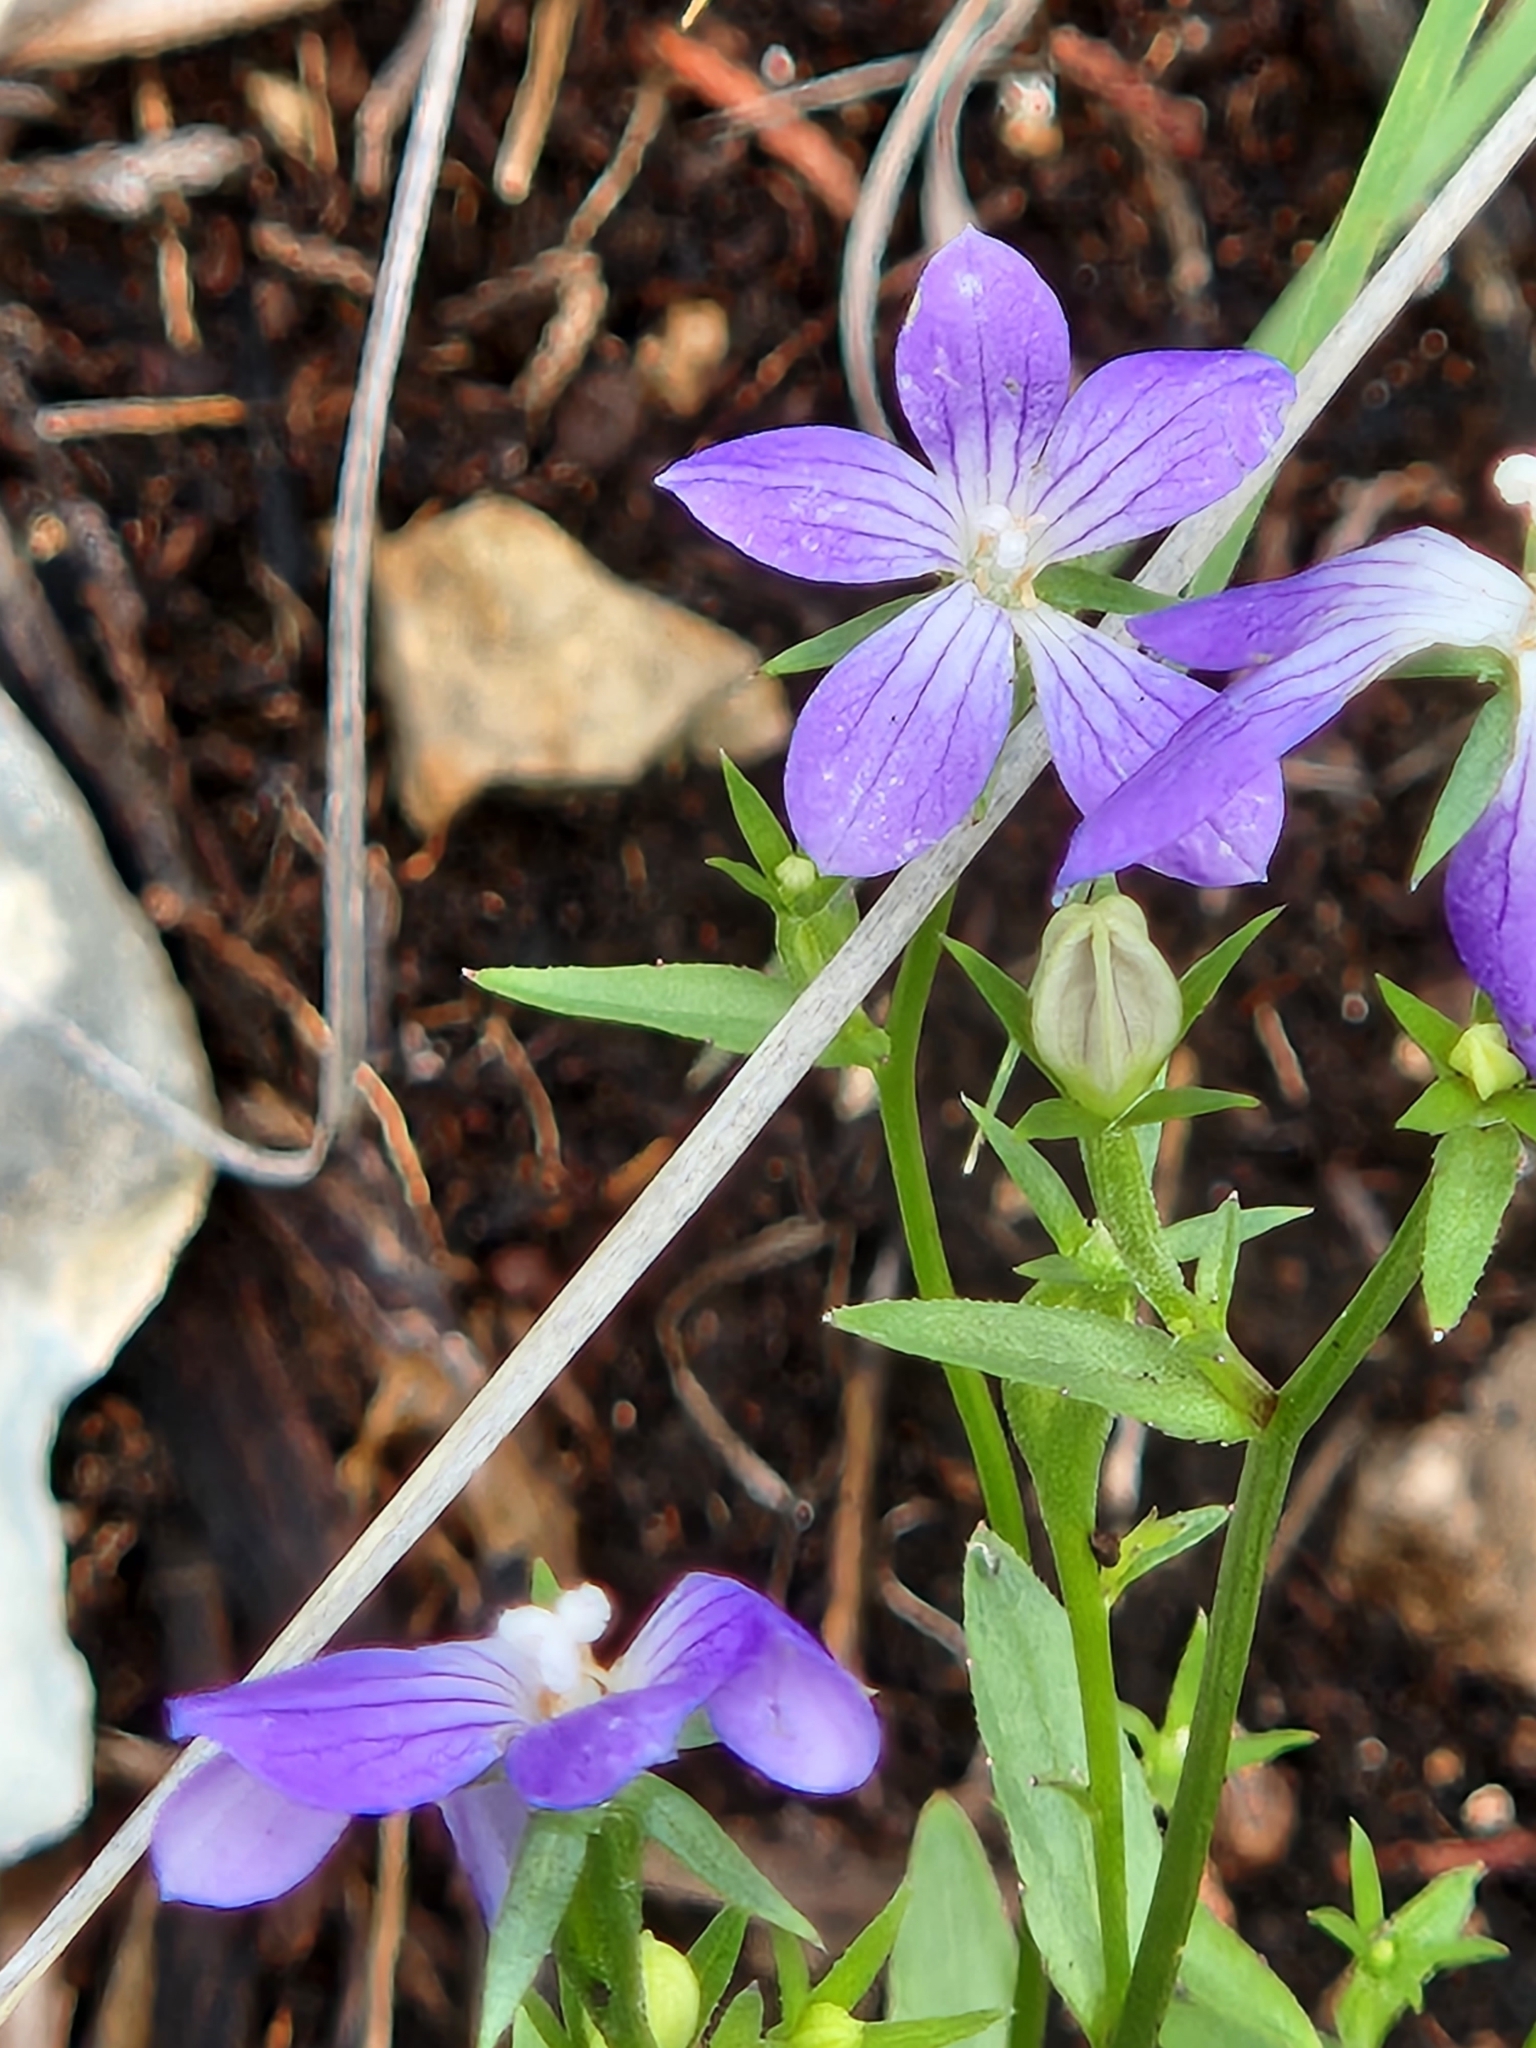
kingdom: Plantae
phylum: Tracheophyta
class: Magnoliopsida
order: Asterales
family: Campanulaceae
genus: Triodanis
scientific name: Triodanis coloradoensis
